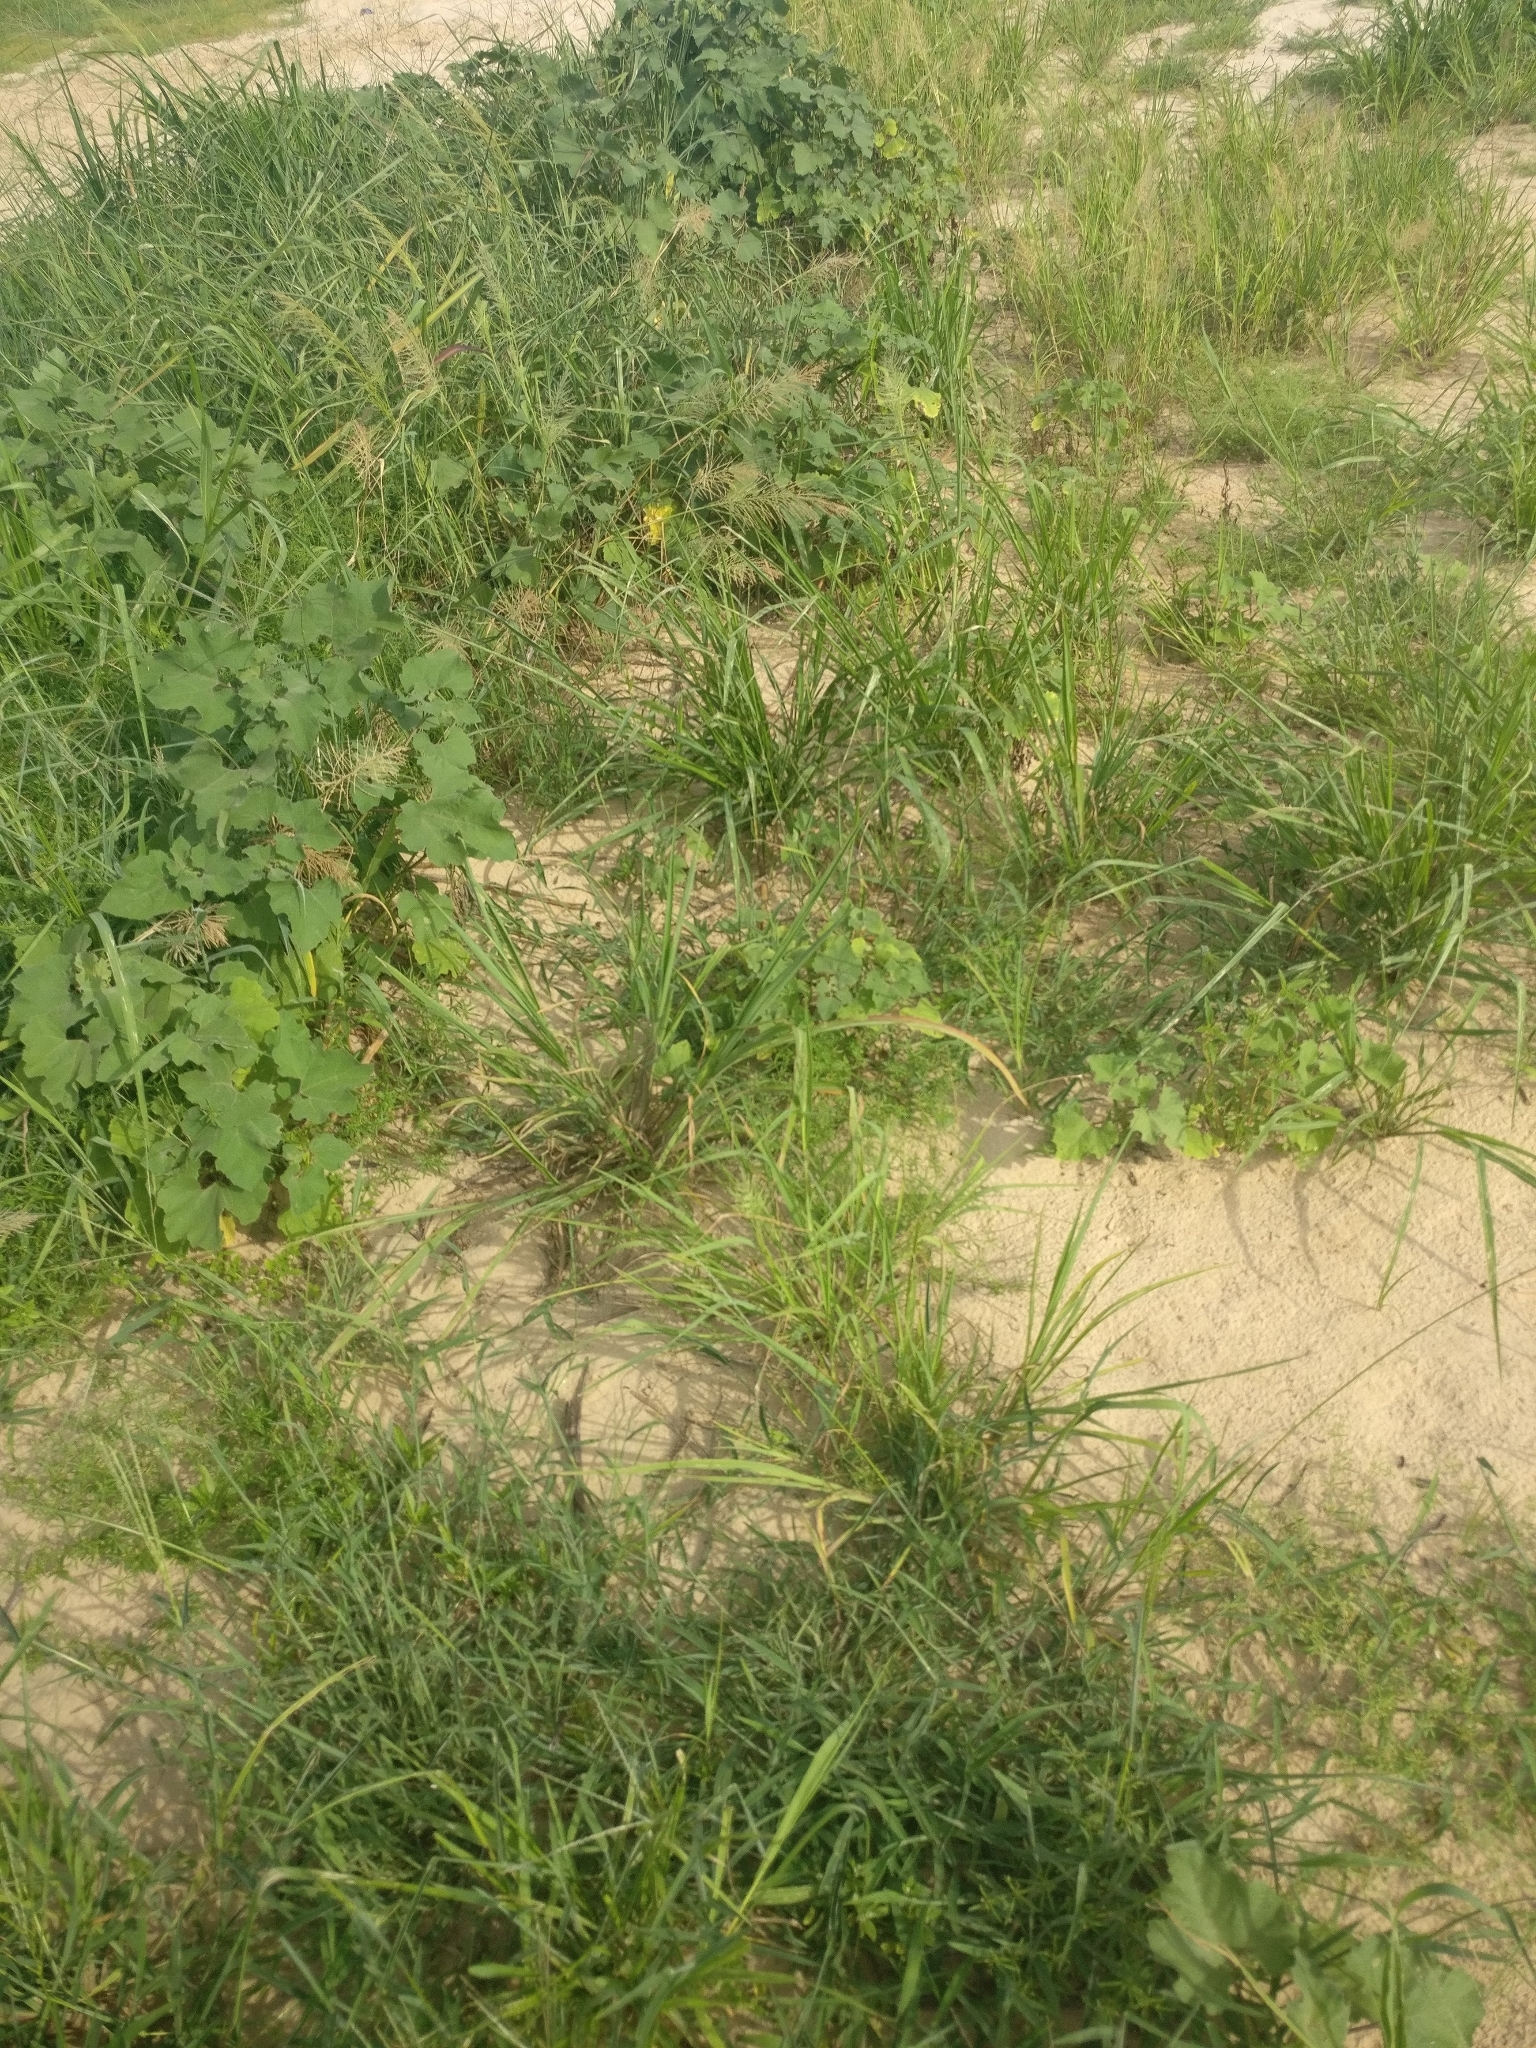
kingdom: Plantae
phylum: Tracheophyta
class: Magnoliopsida
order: Asterales
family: Asteraceae
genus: Xanthium
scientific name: Xanthium strumarium
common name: Rough cocklebur
